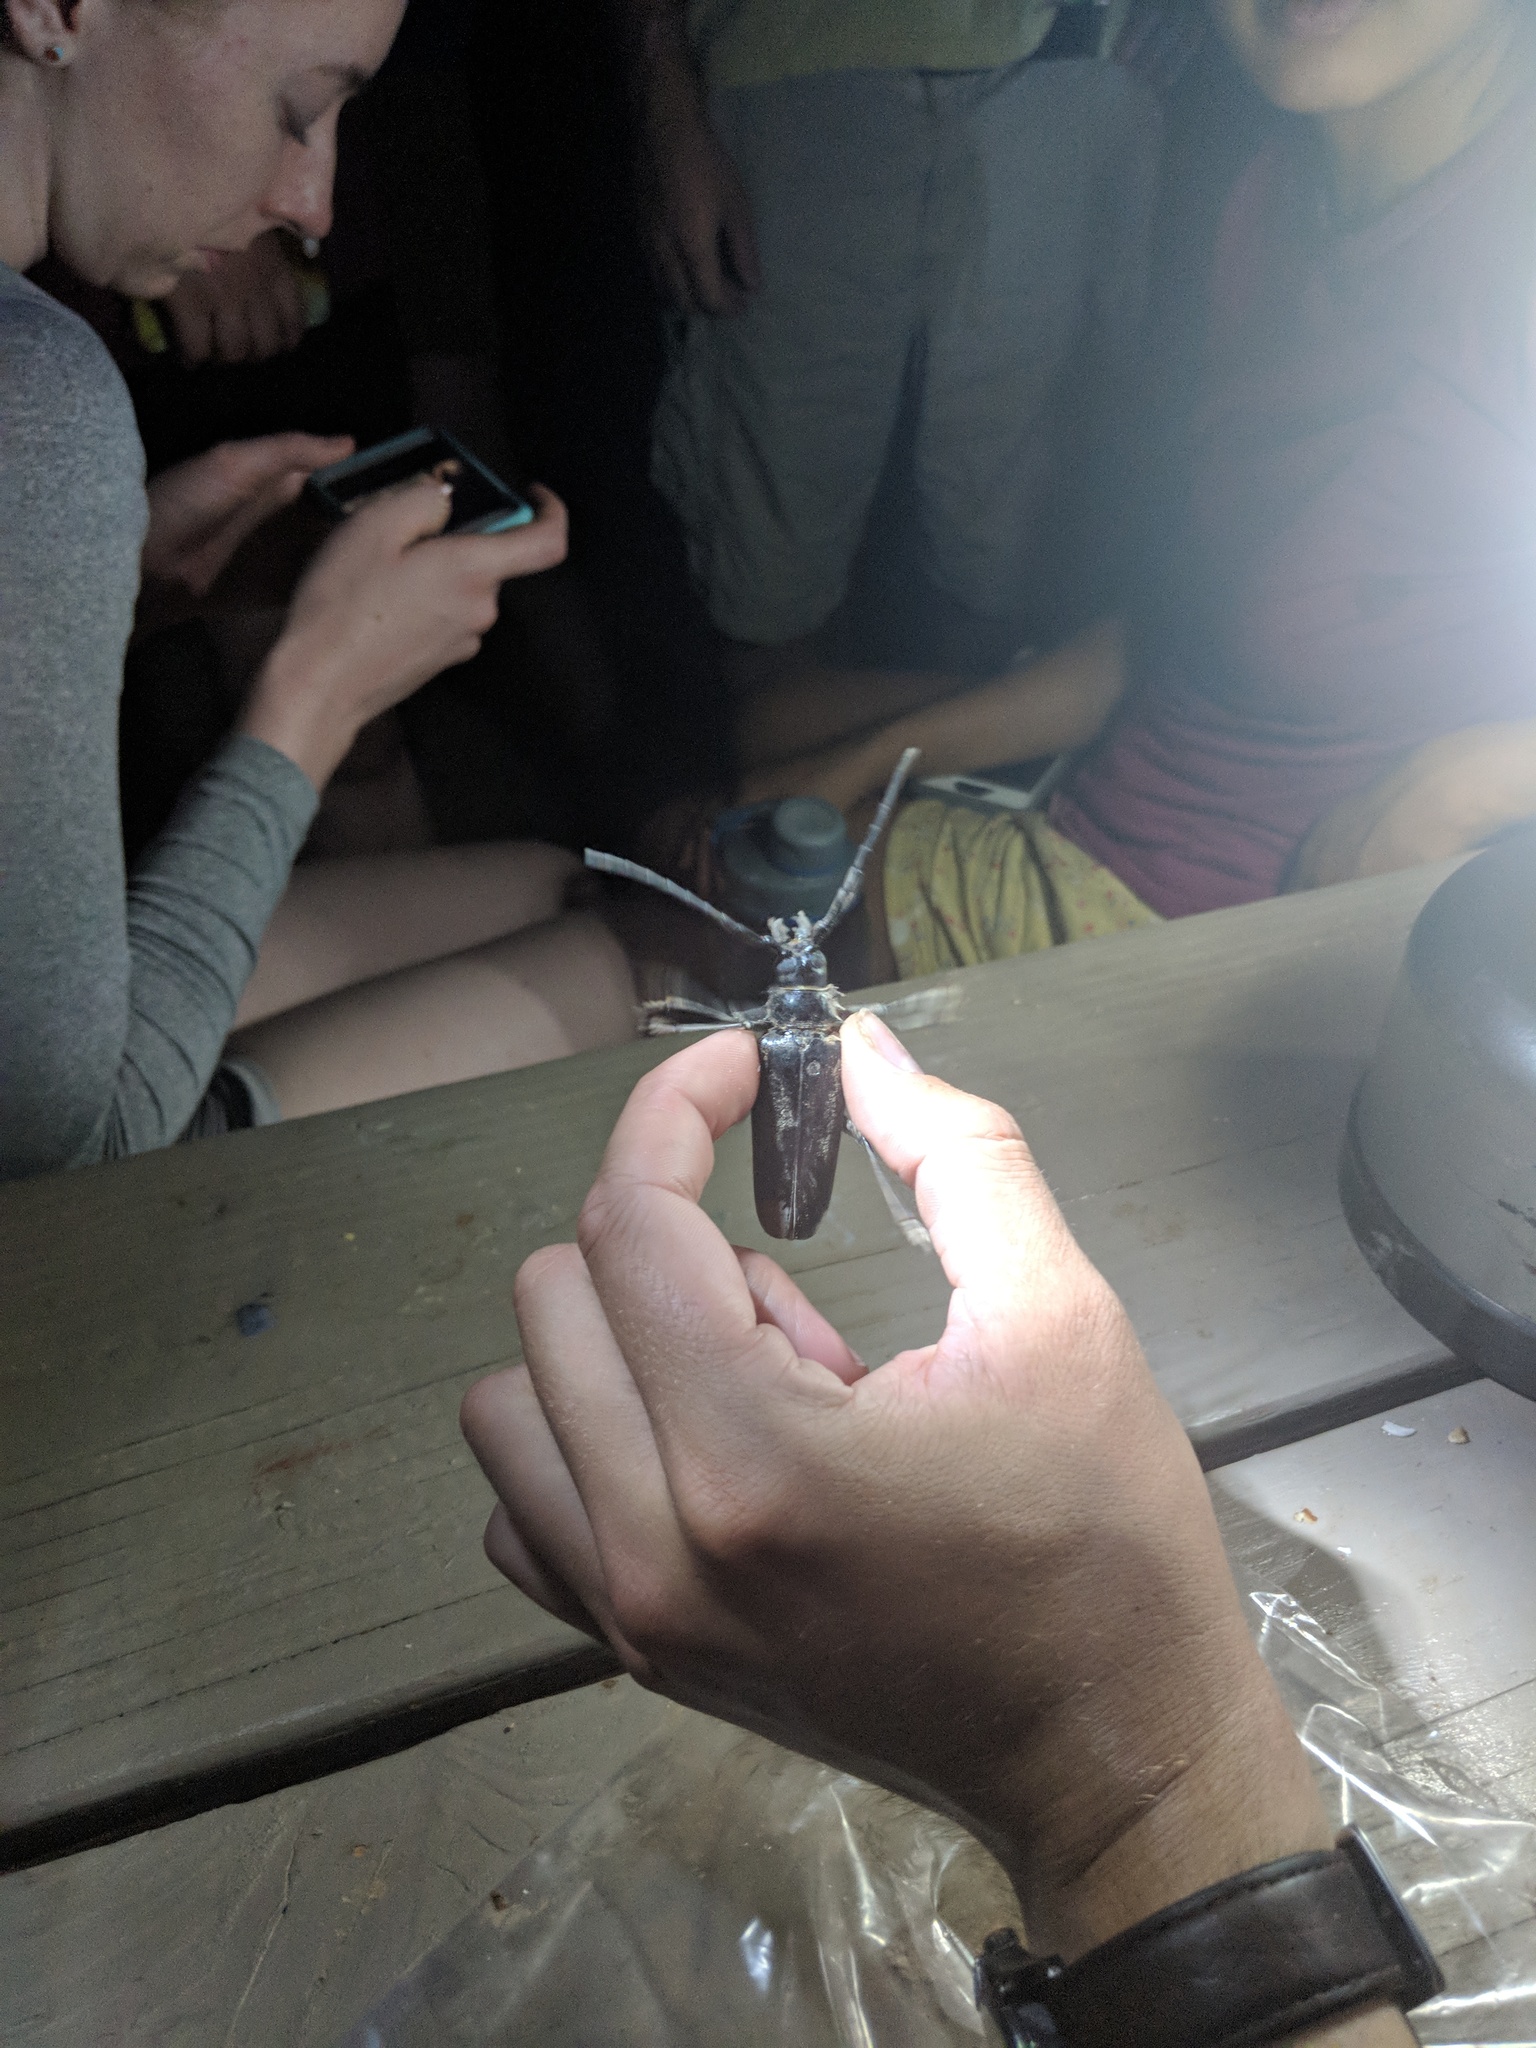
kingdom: Animalia
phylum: Arthropoda
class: Insecta
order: Coleoptera
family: Cerambycidae
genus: Derobrachus
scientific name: Derobrachus
